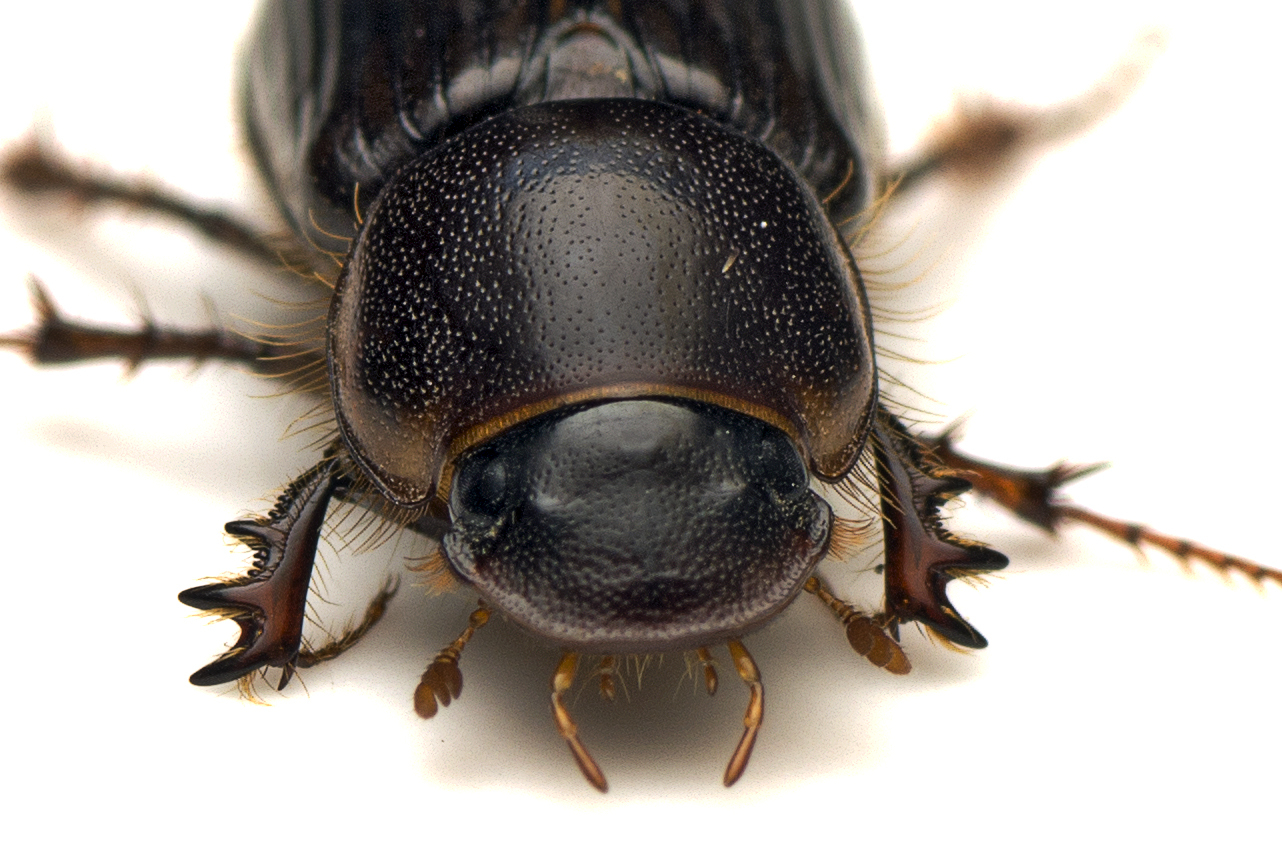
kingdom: Animalia
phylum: Arthropoda
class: Insecta
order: Coleoptera
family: Scarabaeidae
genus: Acrossidius
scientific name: Acrossidius tasmaniae
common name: Black-headed pasture cockchafer
